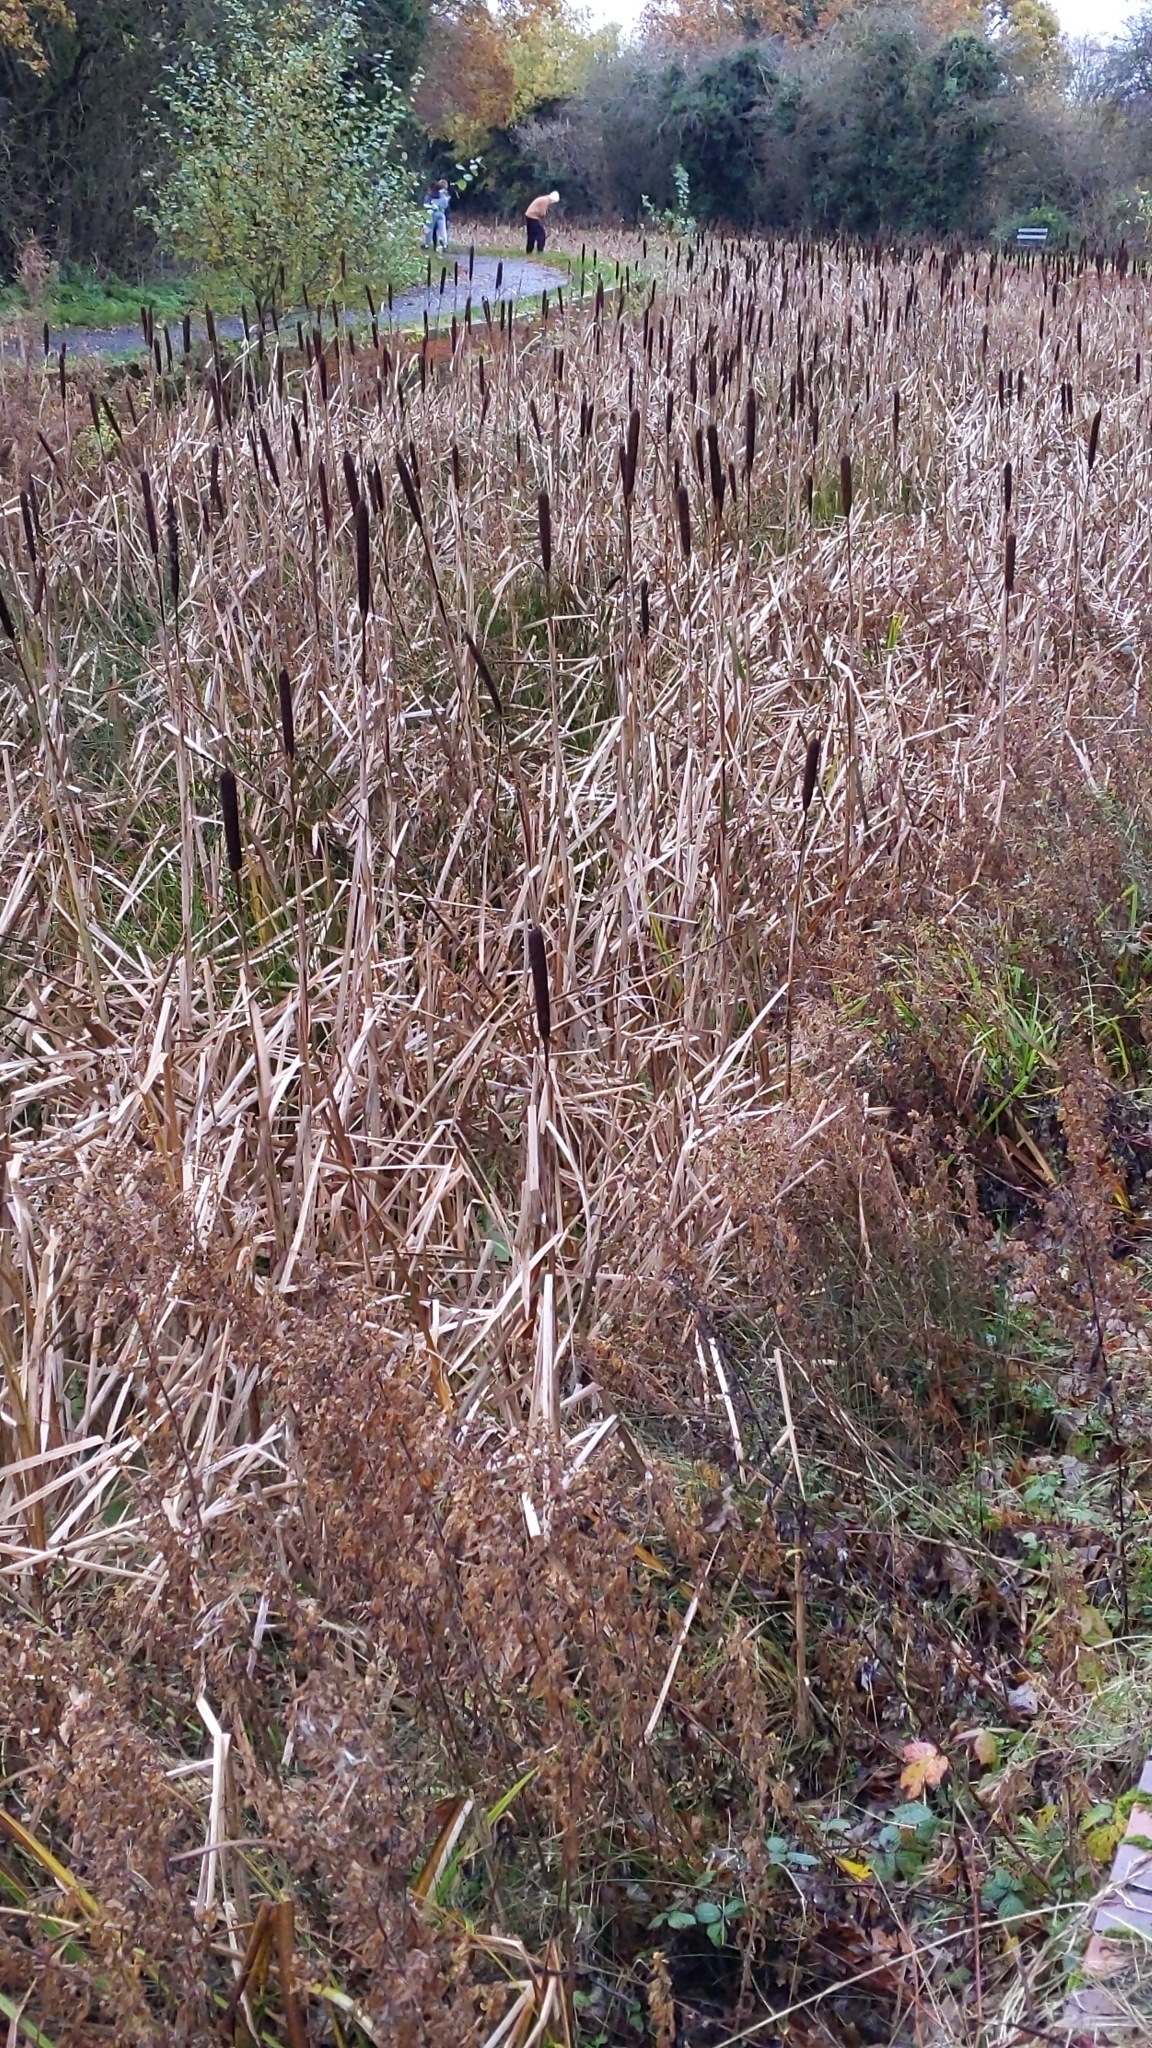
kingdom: Plantae
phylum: Tracheophyta
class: Liliopsida
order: Poales
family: Typhaceae
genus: Typha
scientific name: Typha latifolia
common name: Broadleaf cattail
